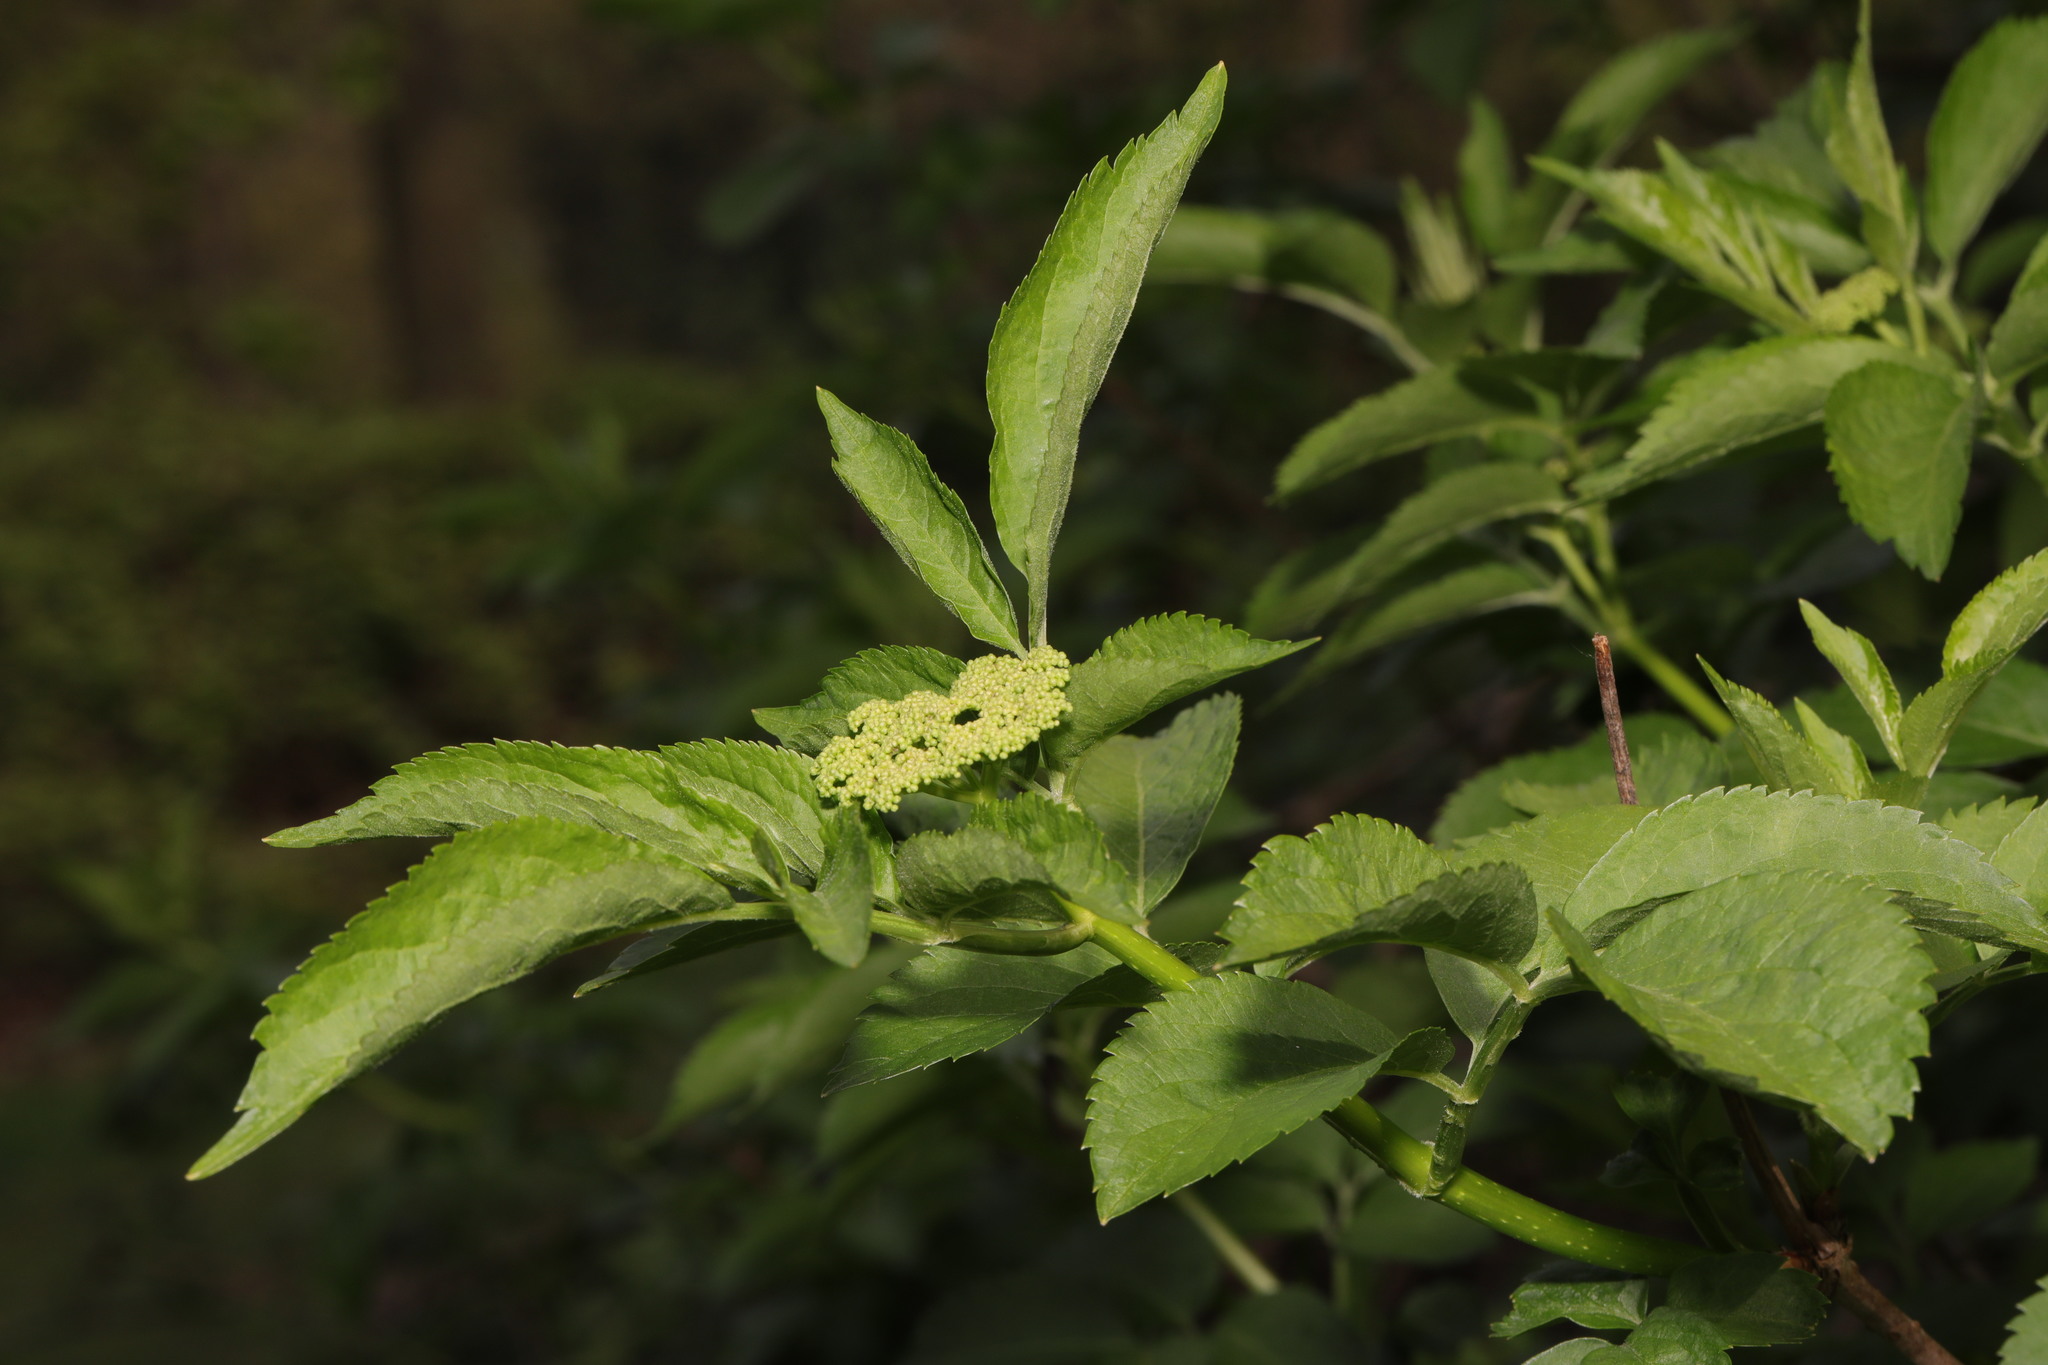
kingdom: Plantae
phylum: Tracheophyta
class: Magnoliopsida
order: Dipsacales
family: Viburnaceae
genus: Sambucus
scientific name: Sambucus nigra
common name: Elder
